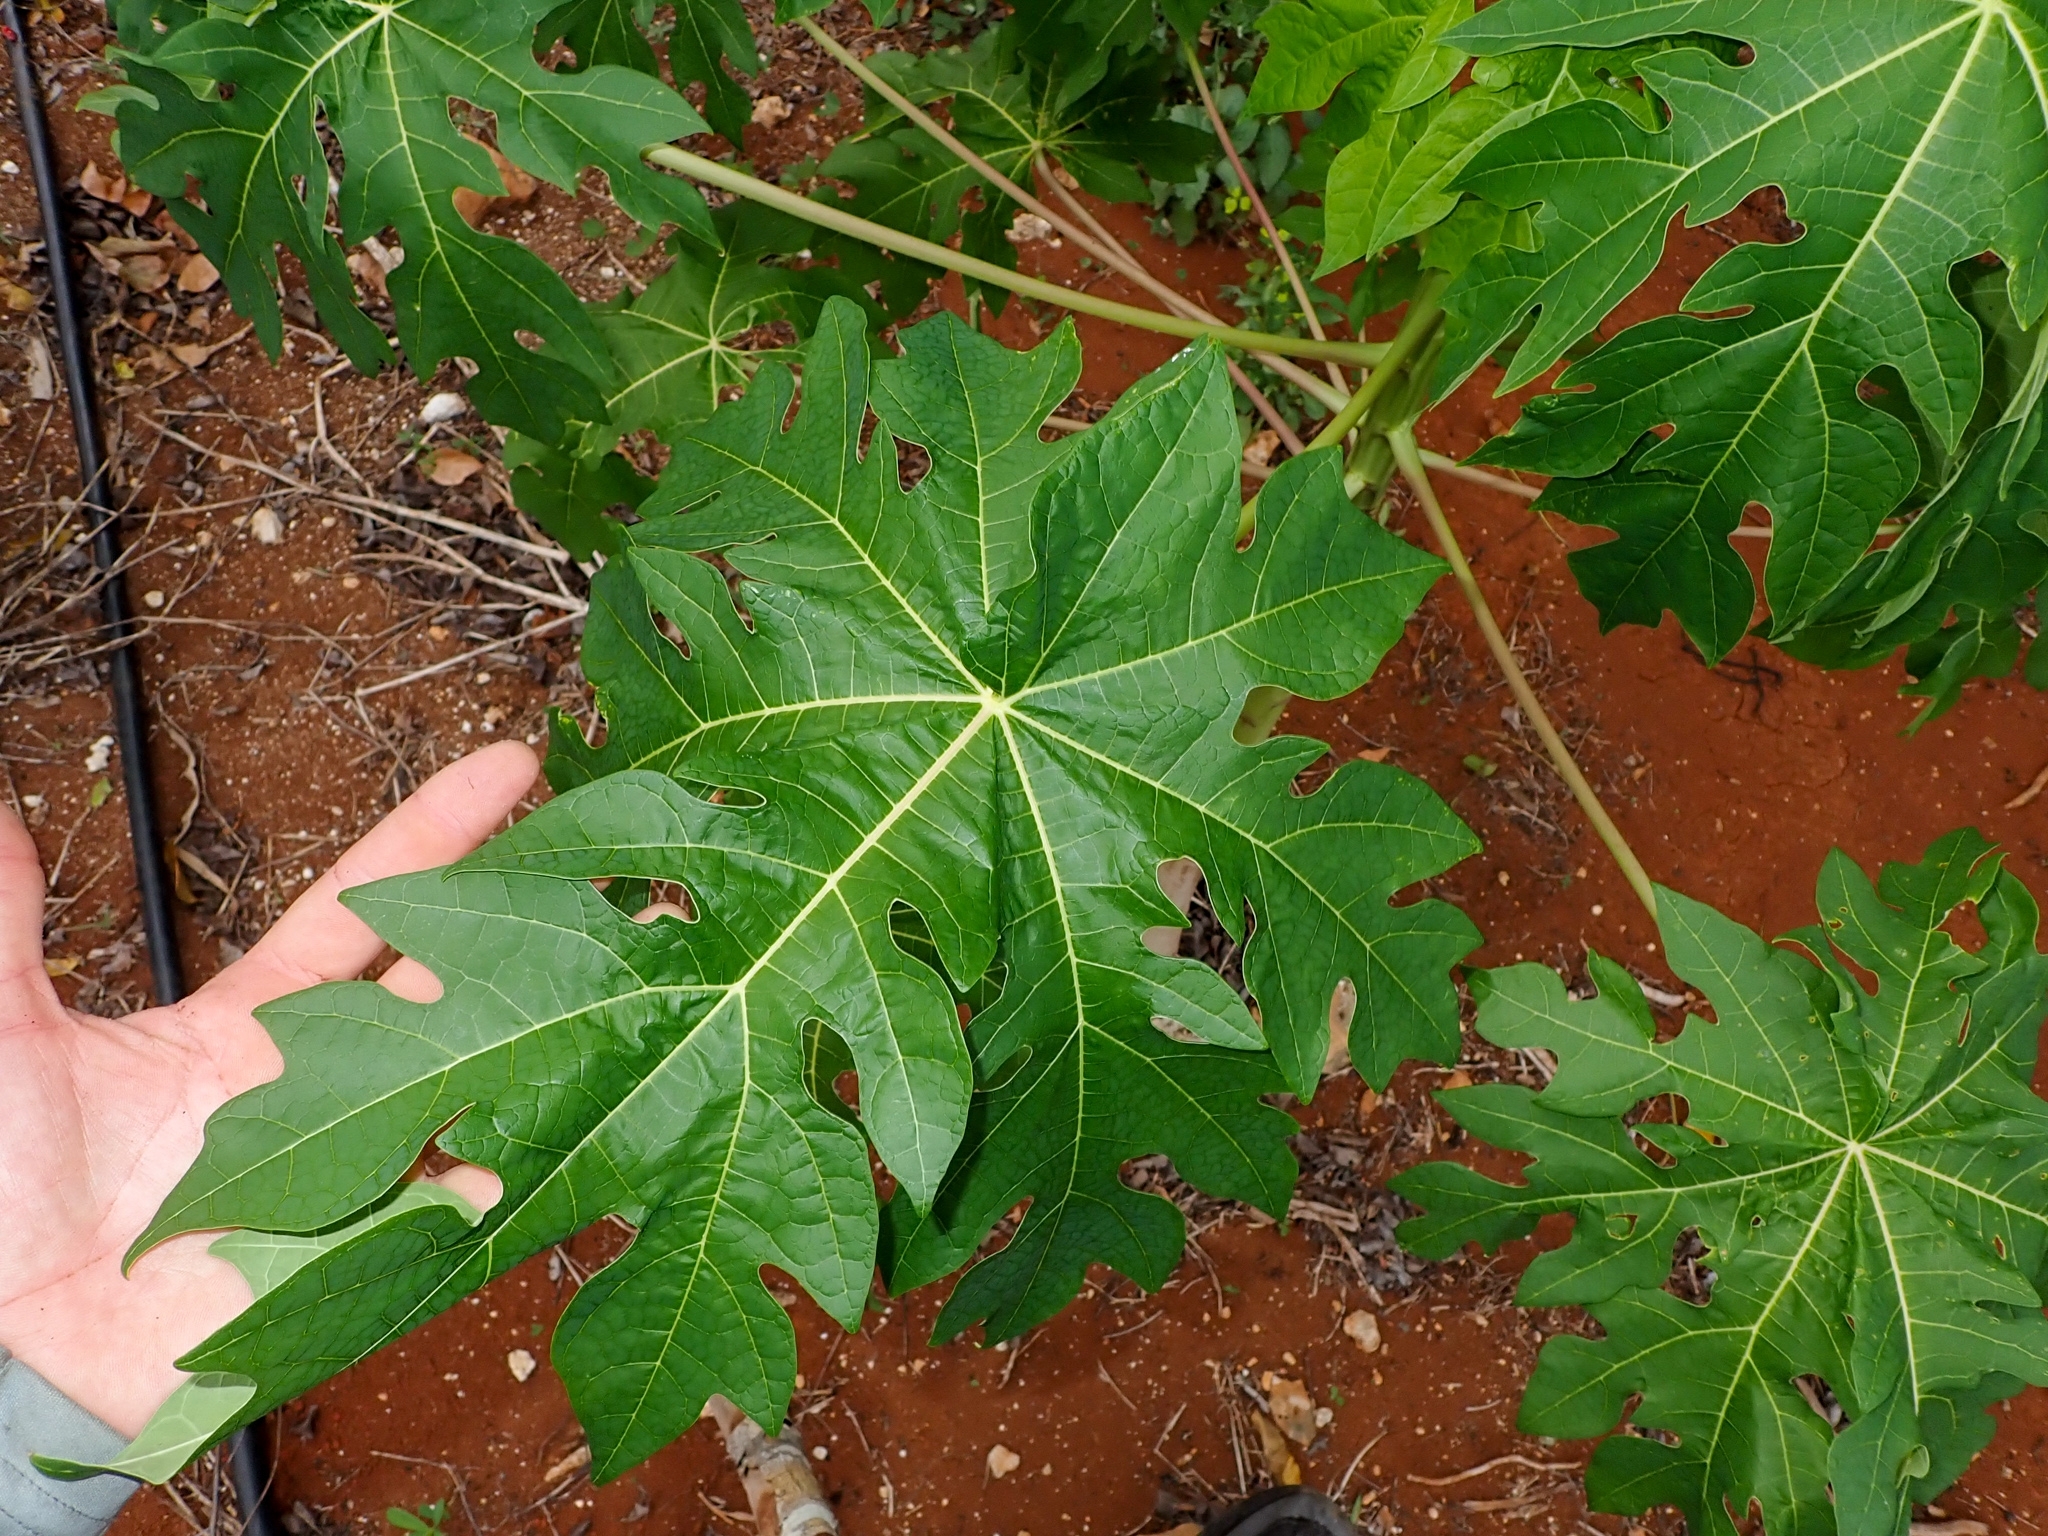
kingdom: Plantae
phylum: Tracheophyta
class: Magnoliopsida
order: Brassicales
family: Caricaceae
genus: Carica
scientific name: Carica papaya
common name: Papaya
